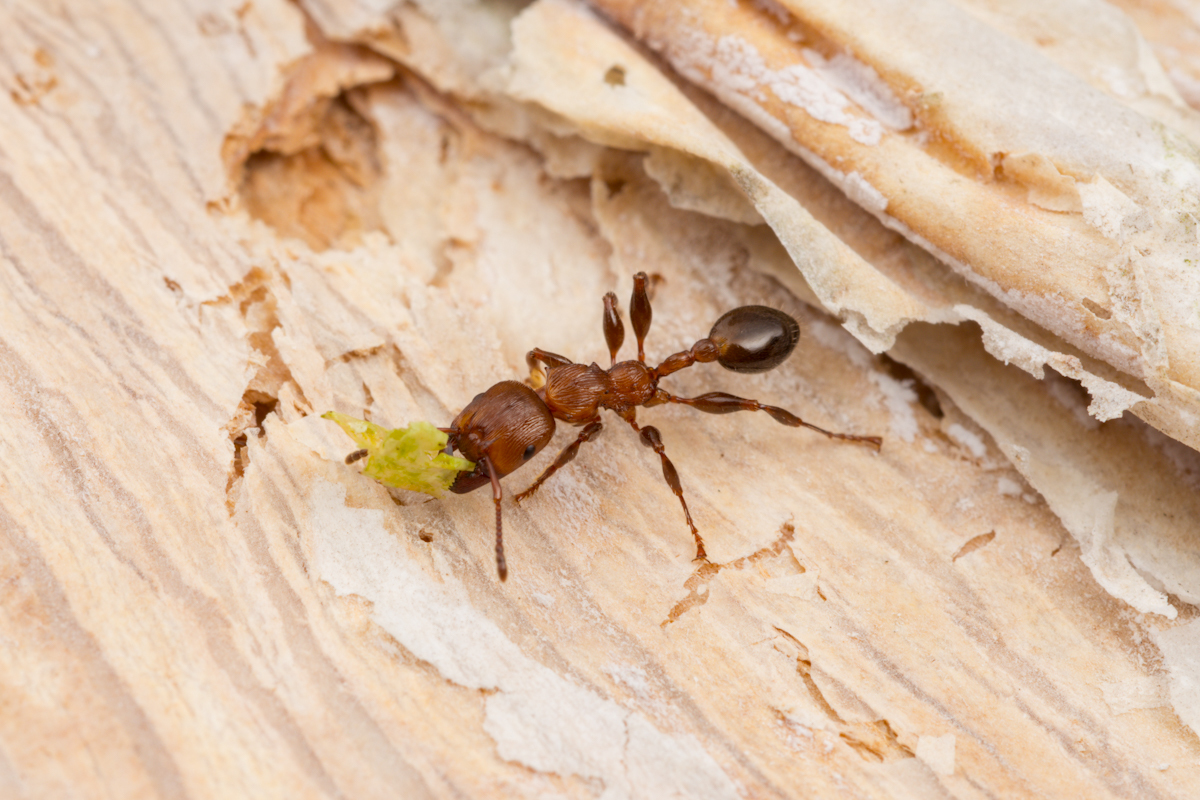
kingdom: Animalia
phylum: Arthropoda
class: Insecta
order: Hymenoptera
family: Formicidae
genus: Podomyrma
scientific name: Podomyrma laevifrons
